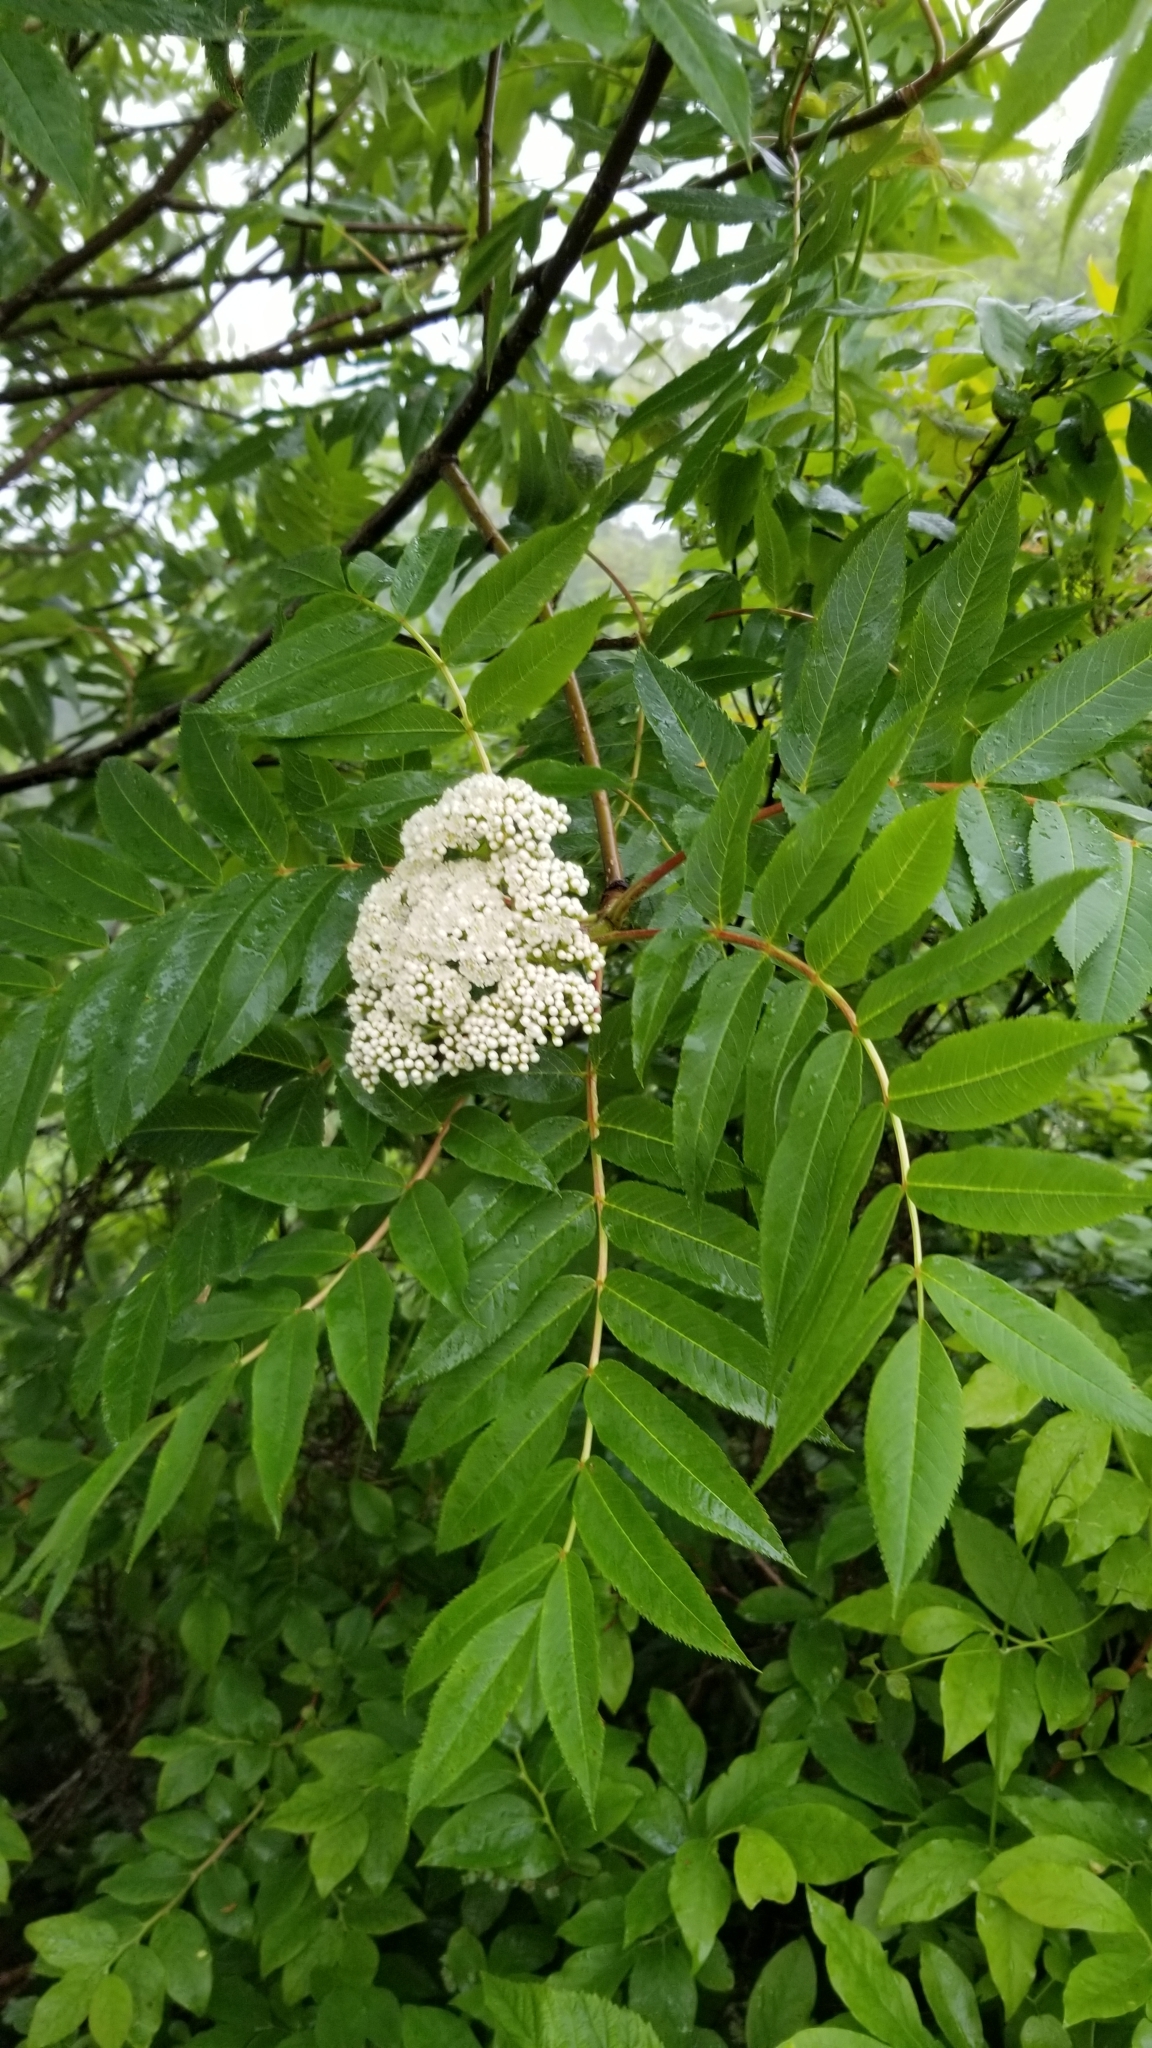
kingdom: Plantae
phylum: Tracheophyta
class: Magnoliopsida
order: Rosales
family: Rosaceae
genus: Sorbus
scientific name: Sorbus americana
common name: American mountain-ash
